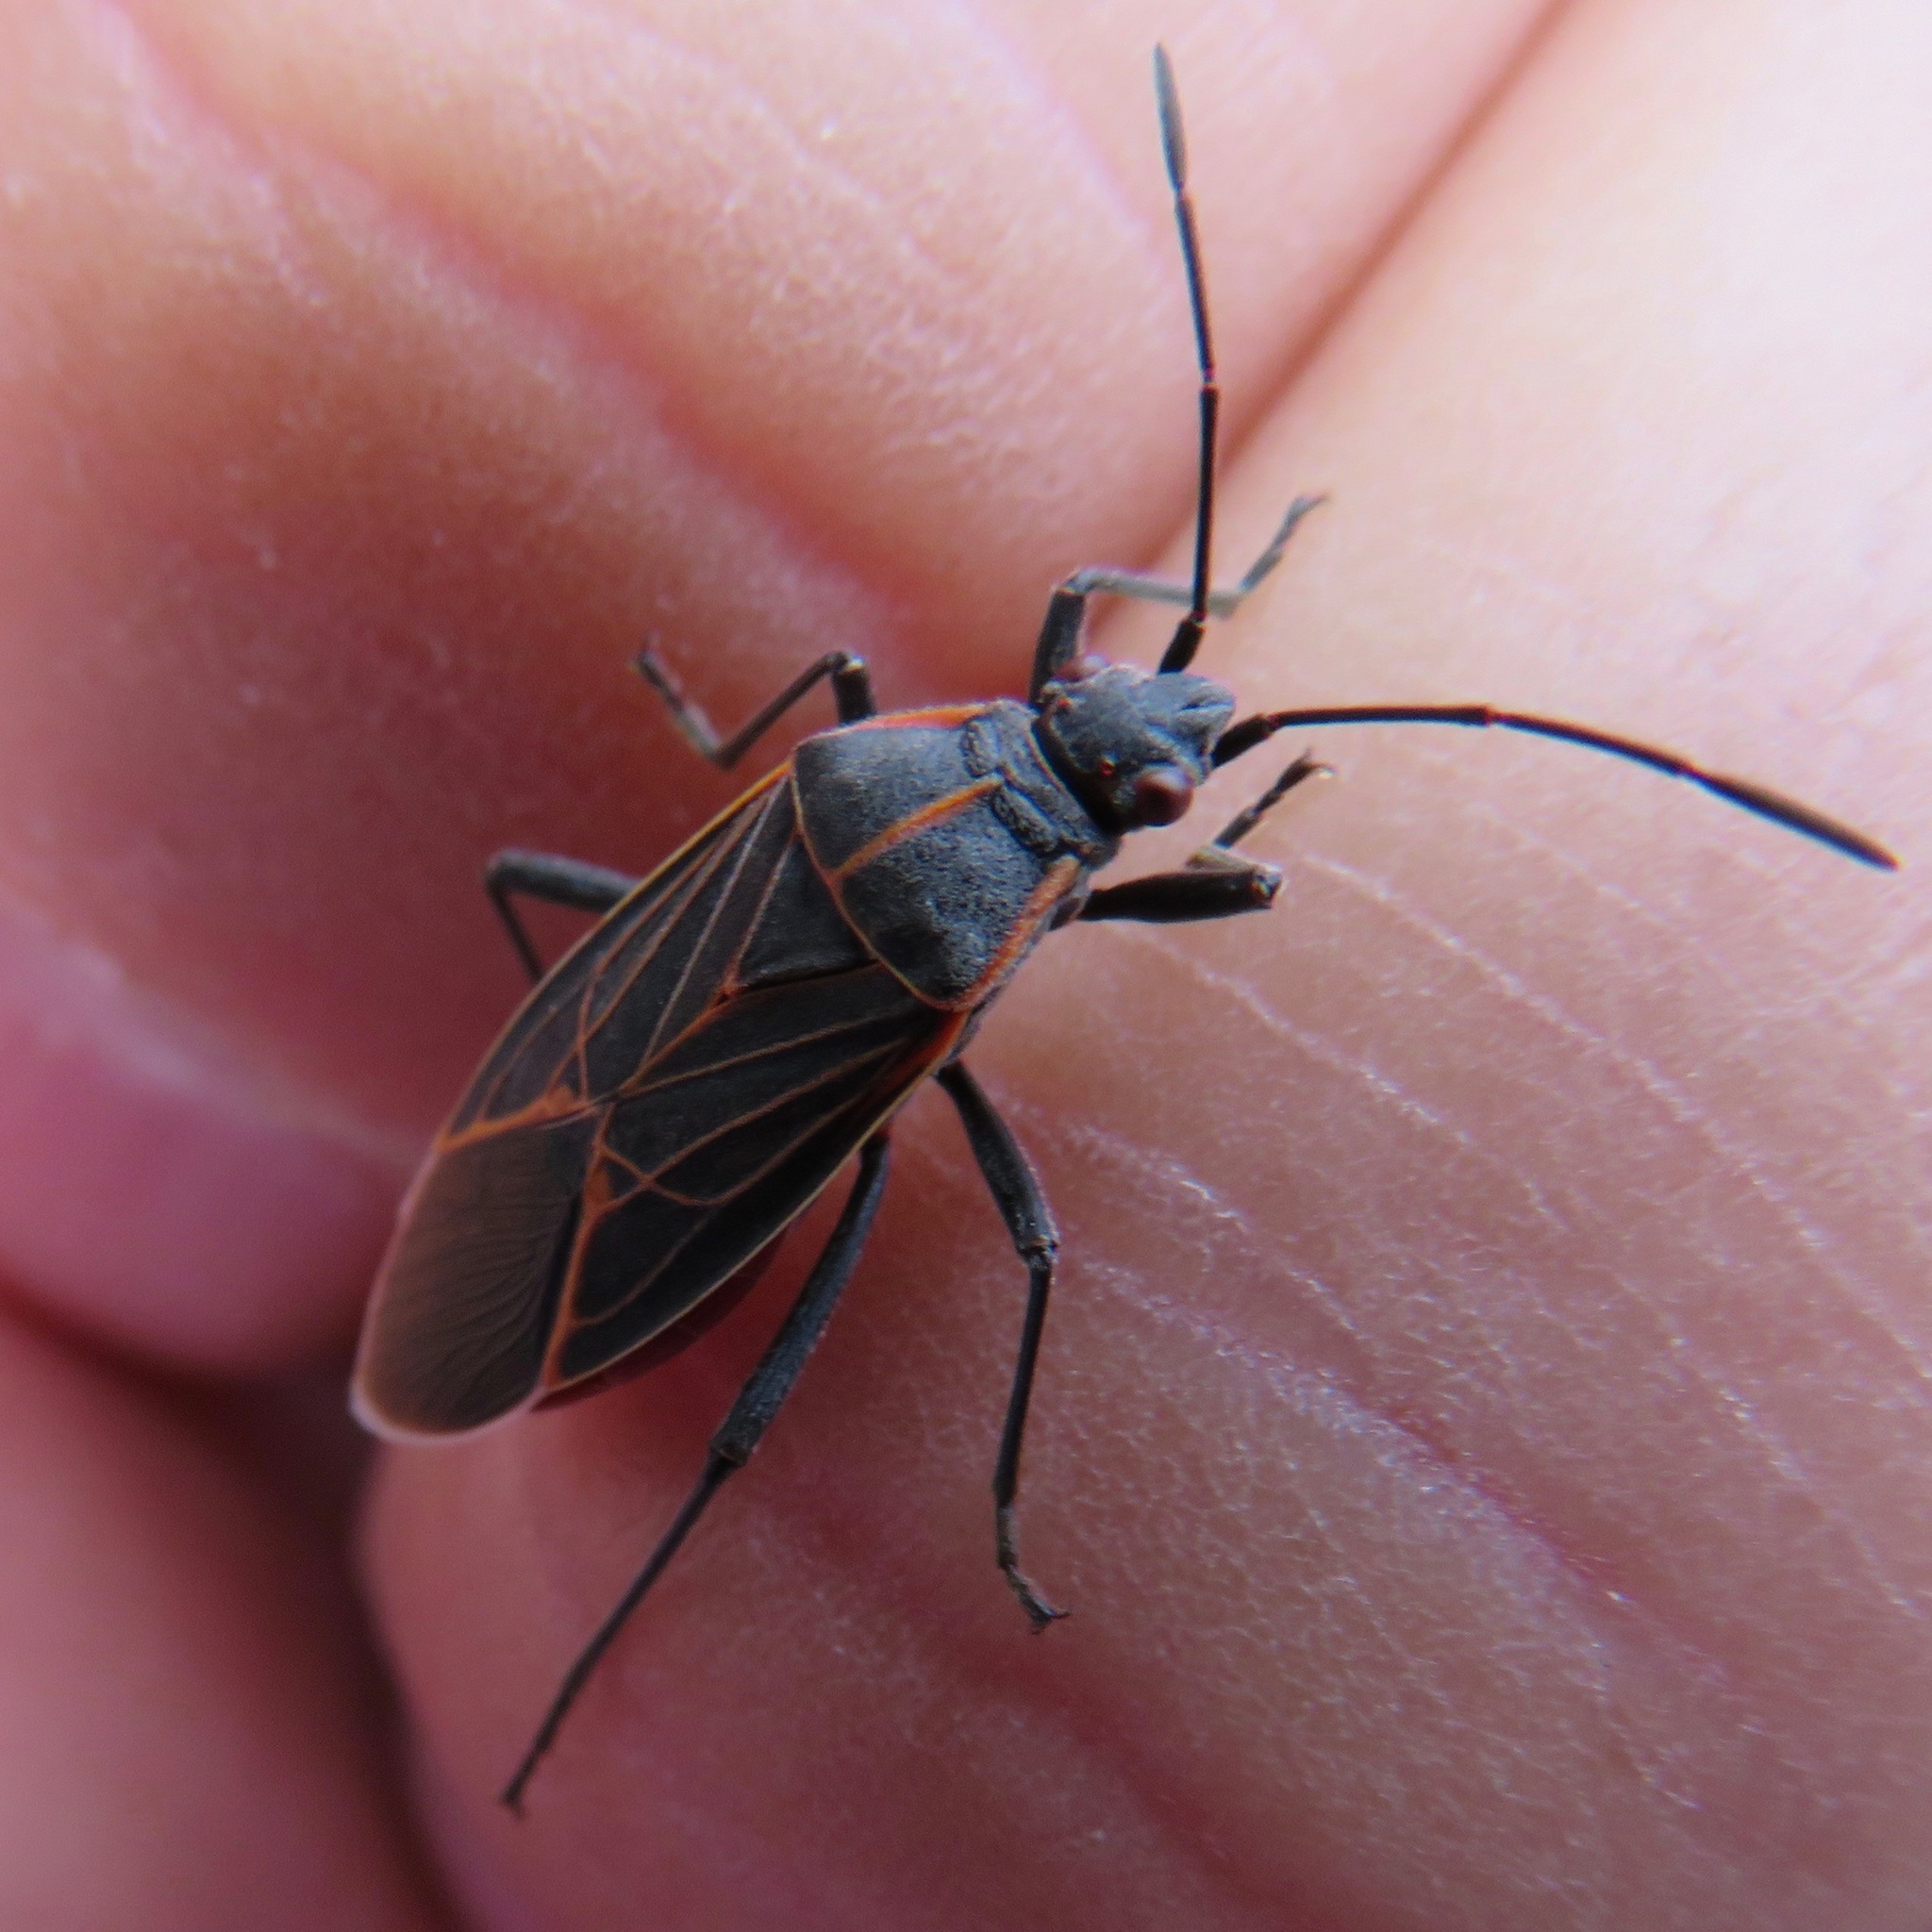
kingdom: Animalia
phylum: Arthropoda
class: Insecta
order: Hemiptera
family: Rhopalidae
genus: Boisea
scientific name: Boisea rubrolineata
